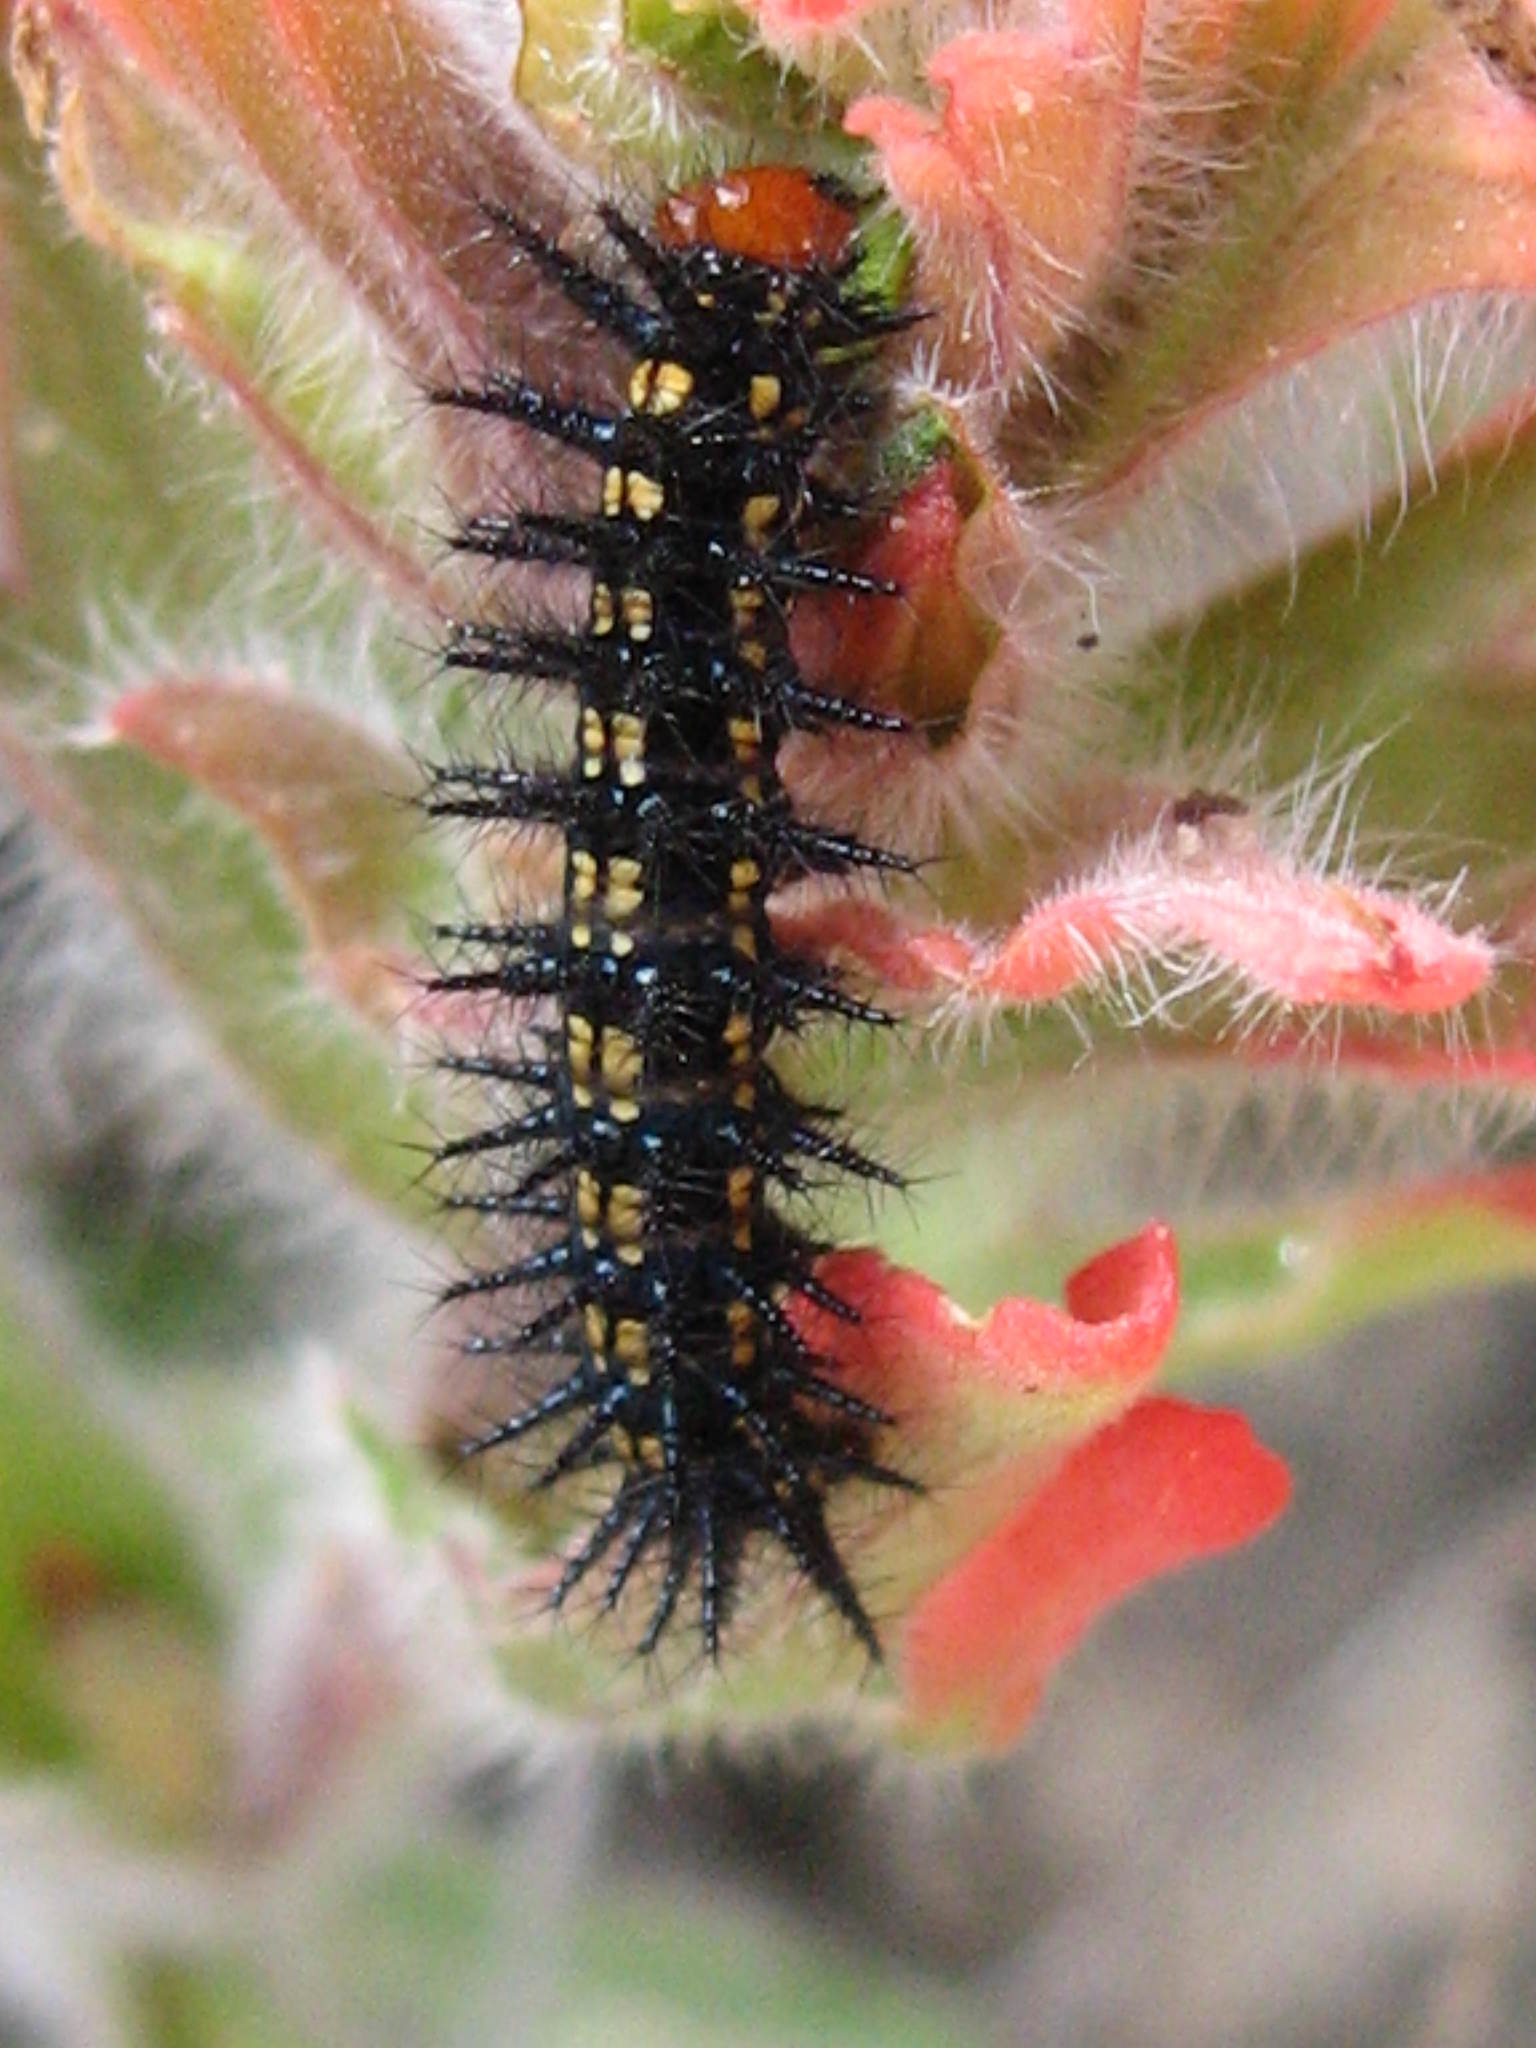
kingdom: Animalia
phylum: Arthropoda
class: Insecta
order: Lepidoptera
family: Nymphalidae
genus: Chlosyne
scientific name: Chlosyne
